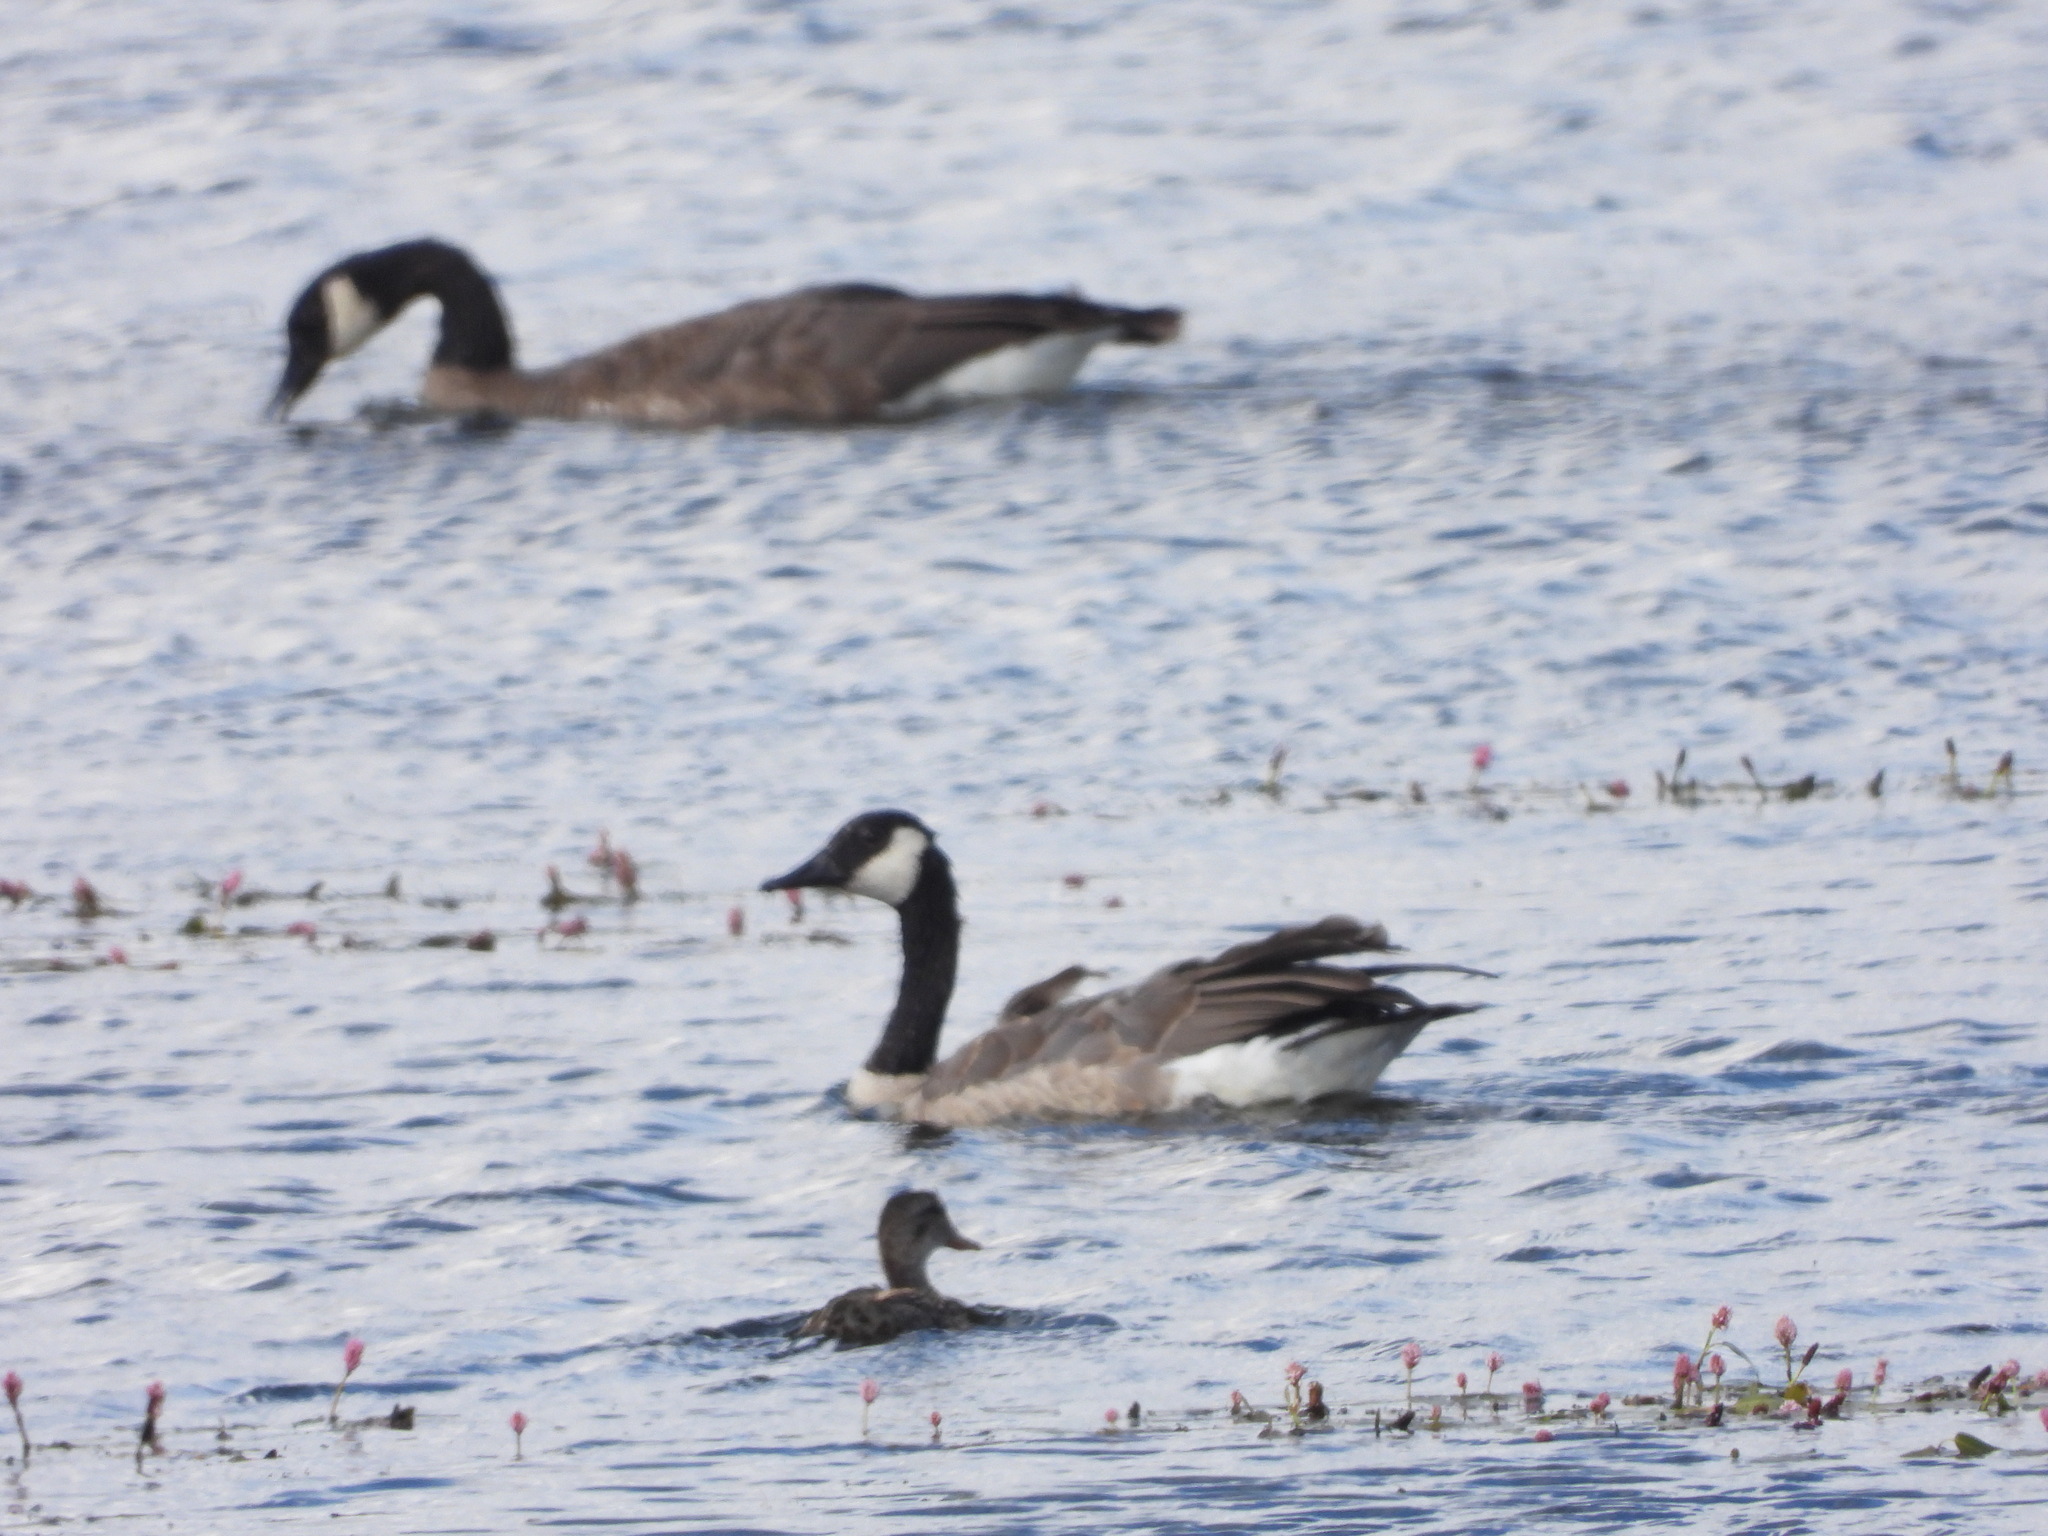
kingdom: Animalia
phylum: Chordata
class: Aves
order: Anseriformes
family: Anatidae
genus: Branta
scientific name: Branta canadensis
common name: Canada goose
